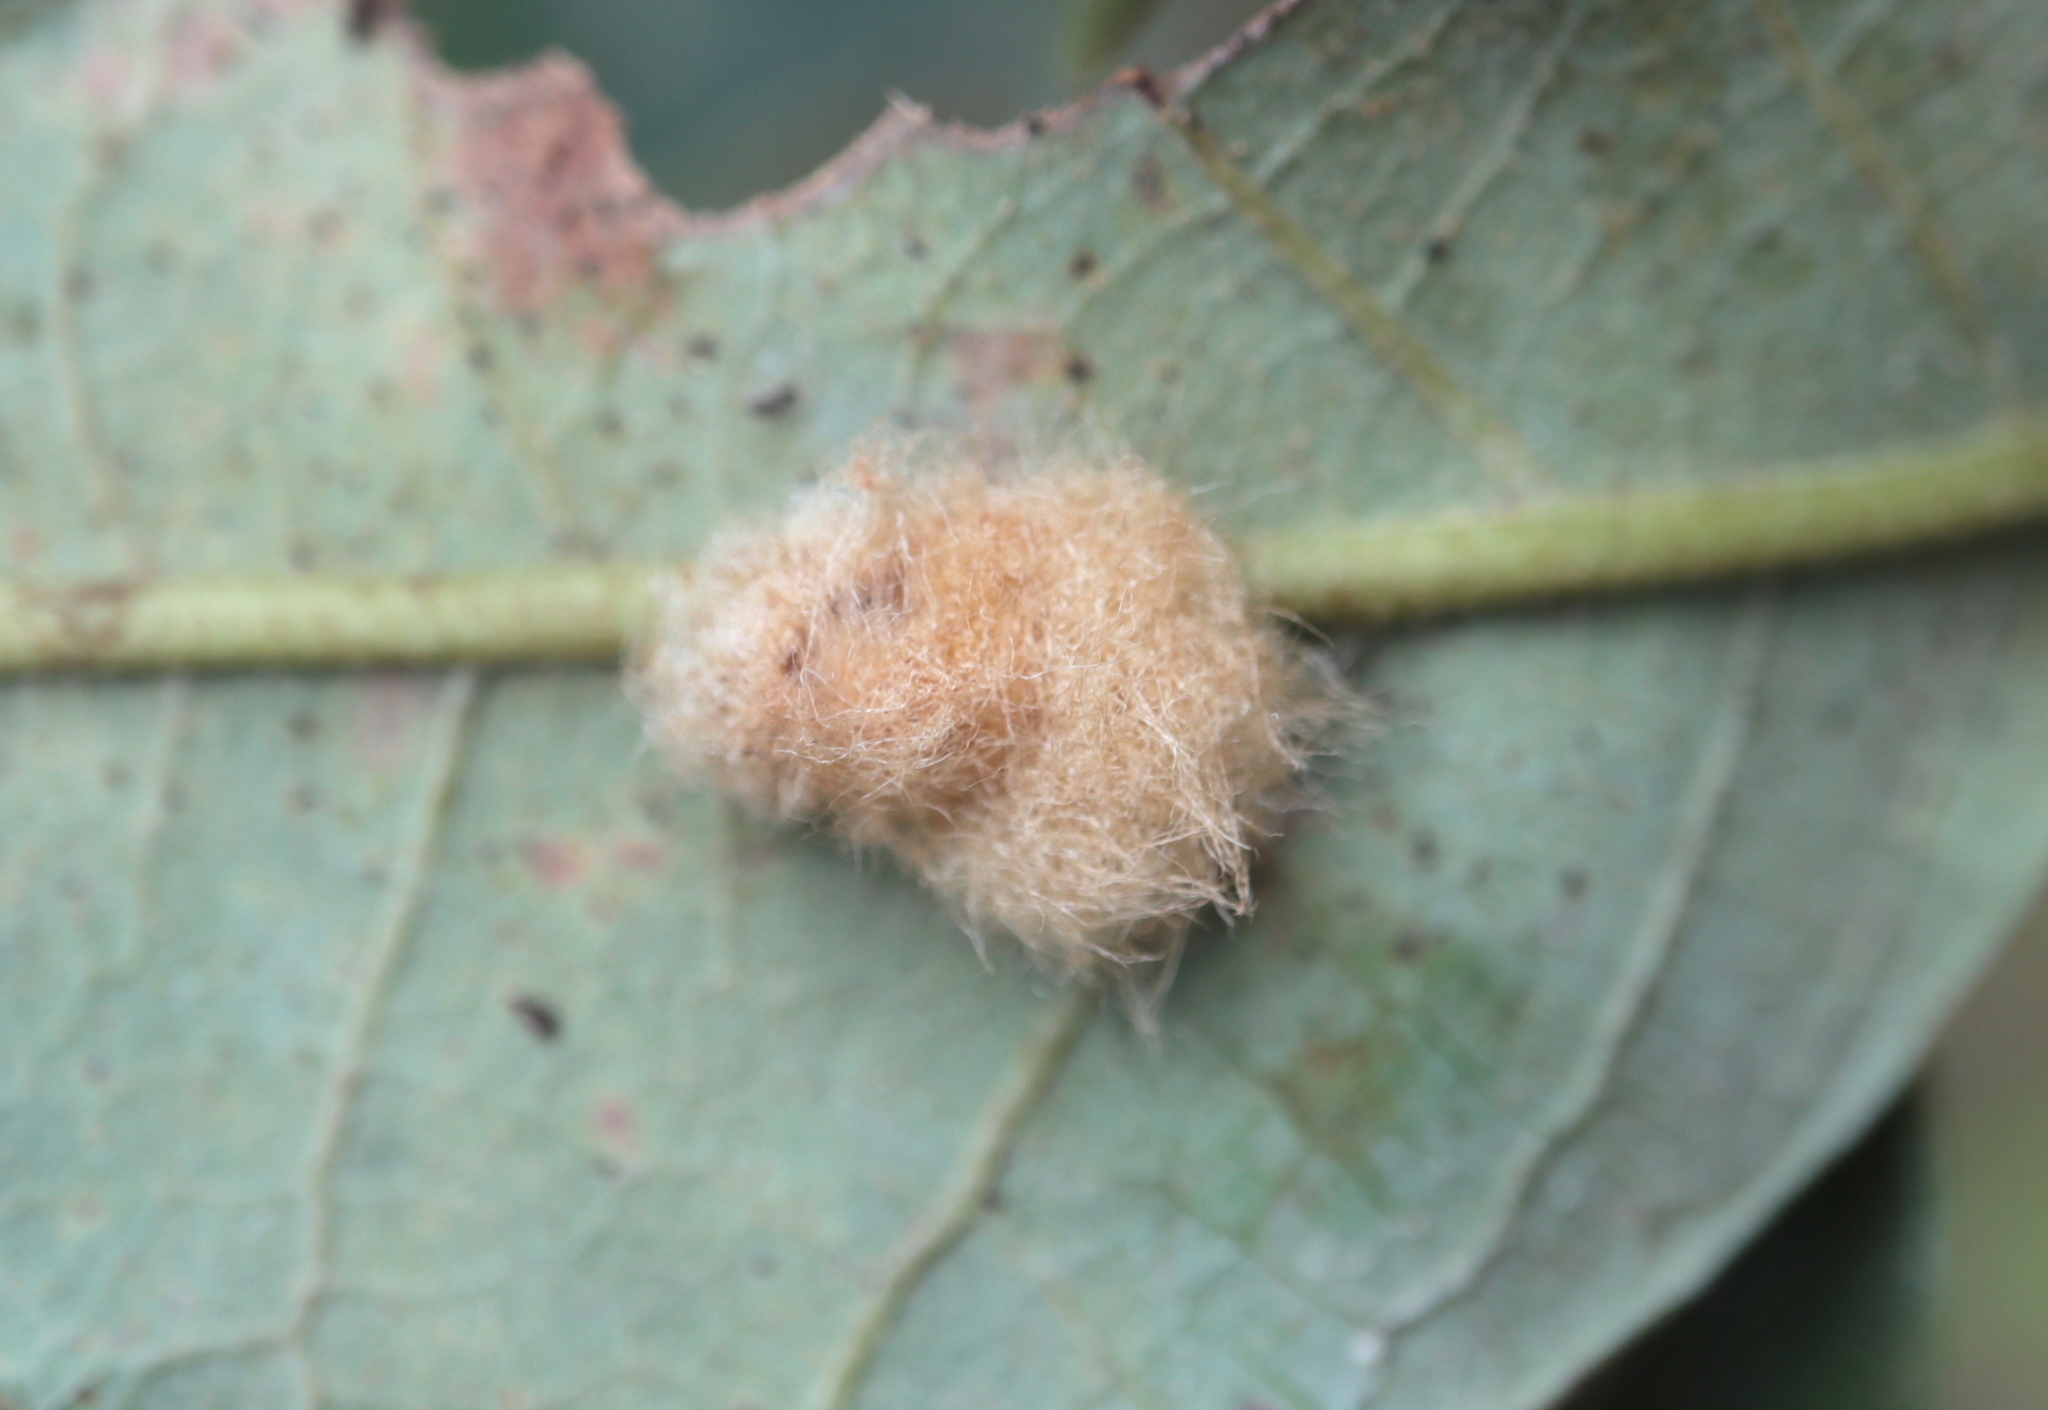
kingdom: Animalia
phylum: Arthropoda
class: Insecta
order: Hymenoptera
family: Cynipidae
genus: Andricus
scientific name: Andricus Druon pattoni
